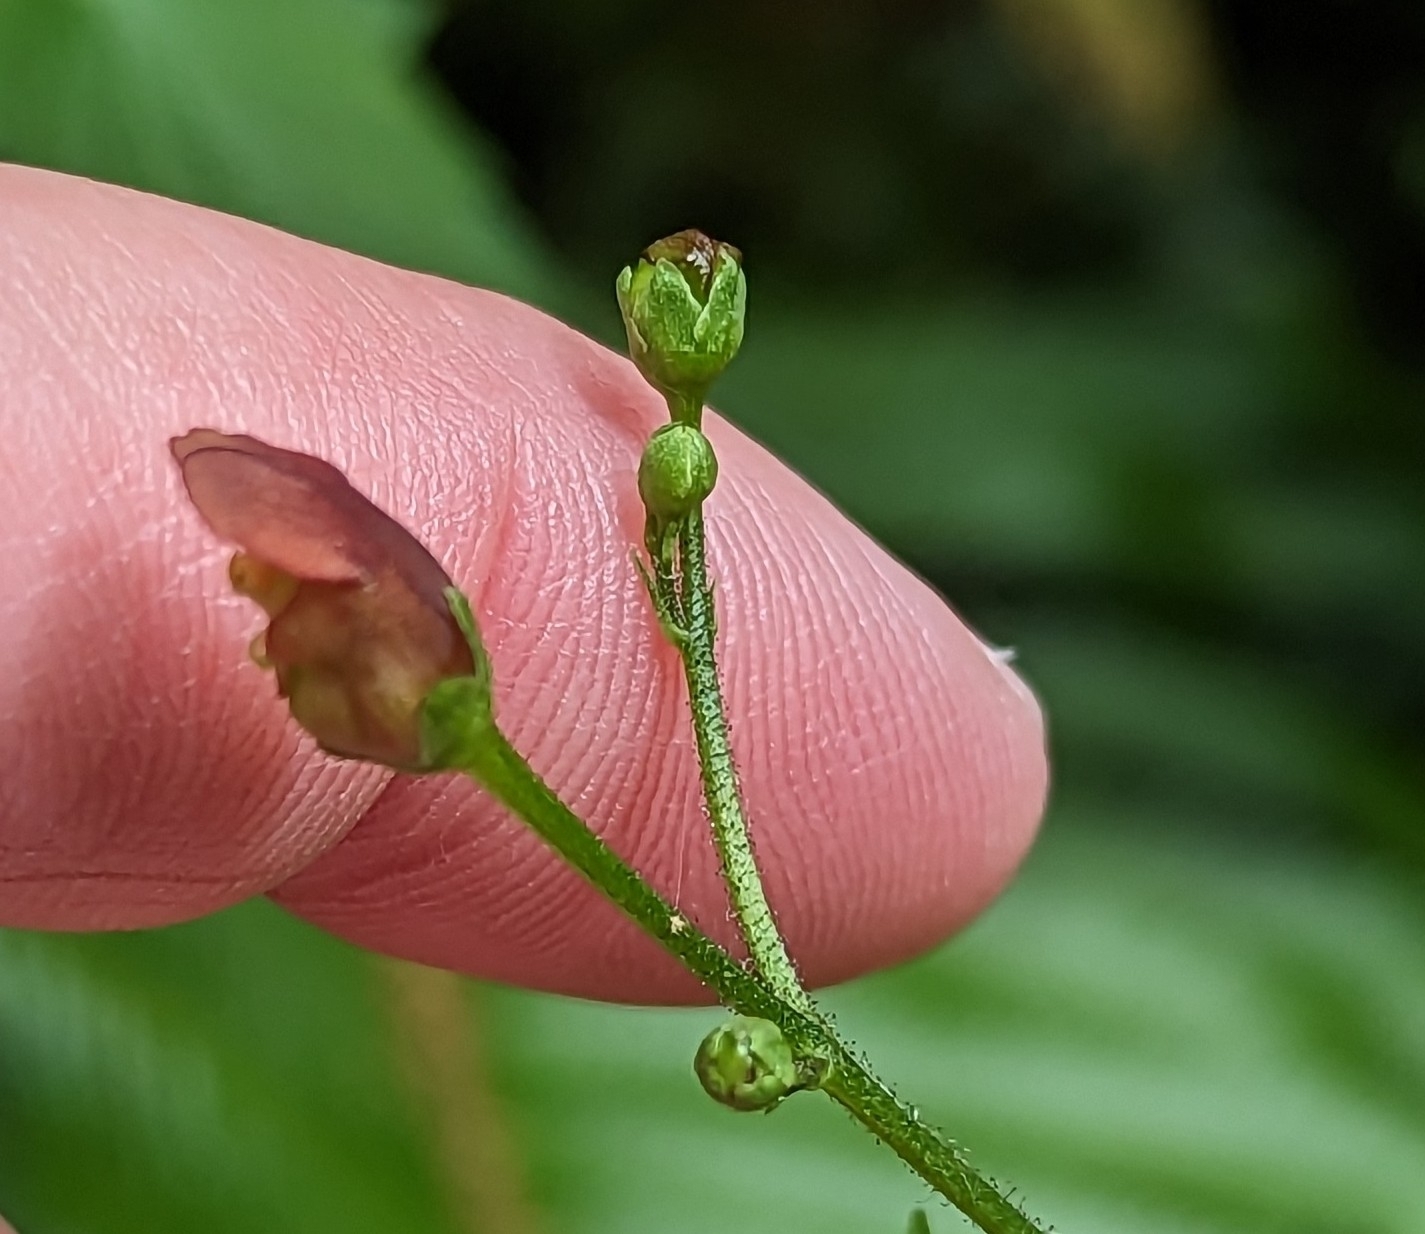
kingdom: Plantae
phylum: Tracheophyta
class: Magnoliopsida
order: Lamiales
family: Scrophulariaceae
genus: Scrophularia
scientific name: Scrophularia californica
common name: California figwort
